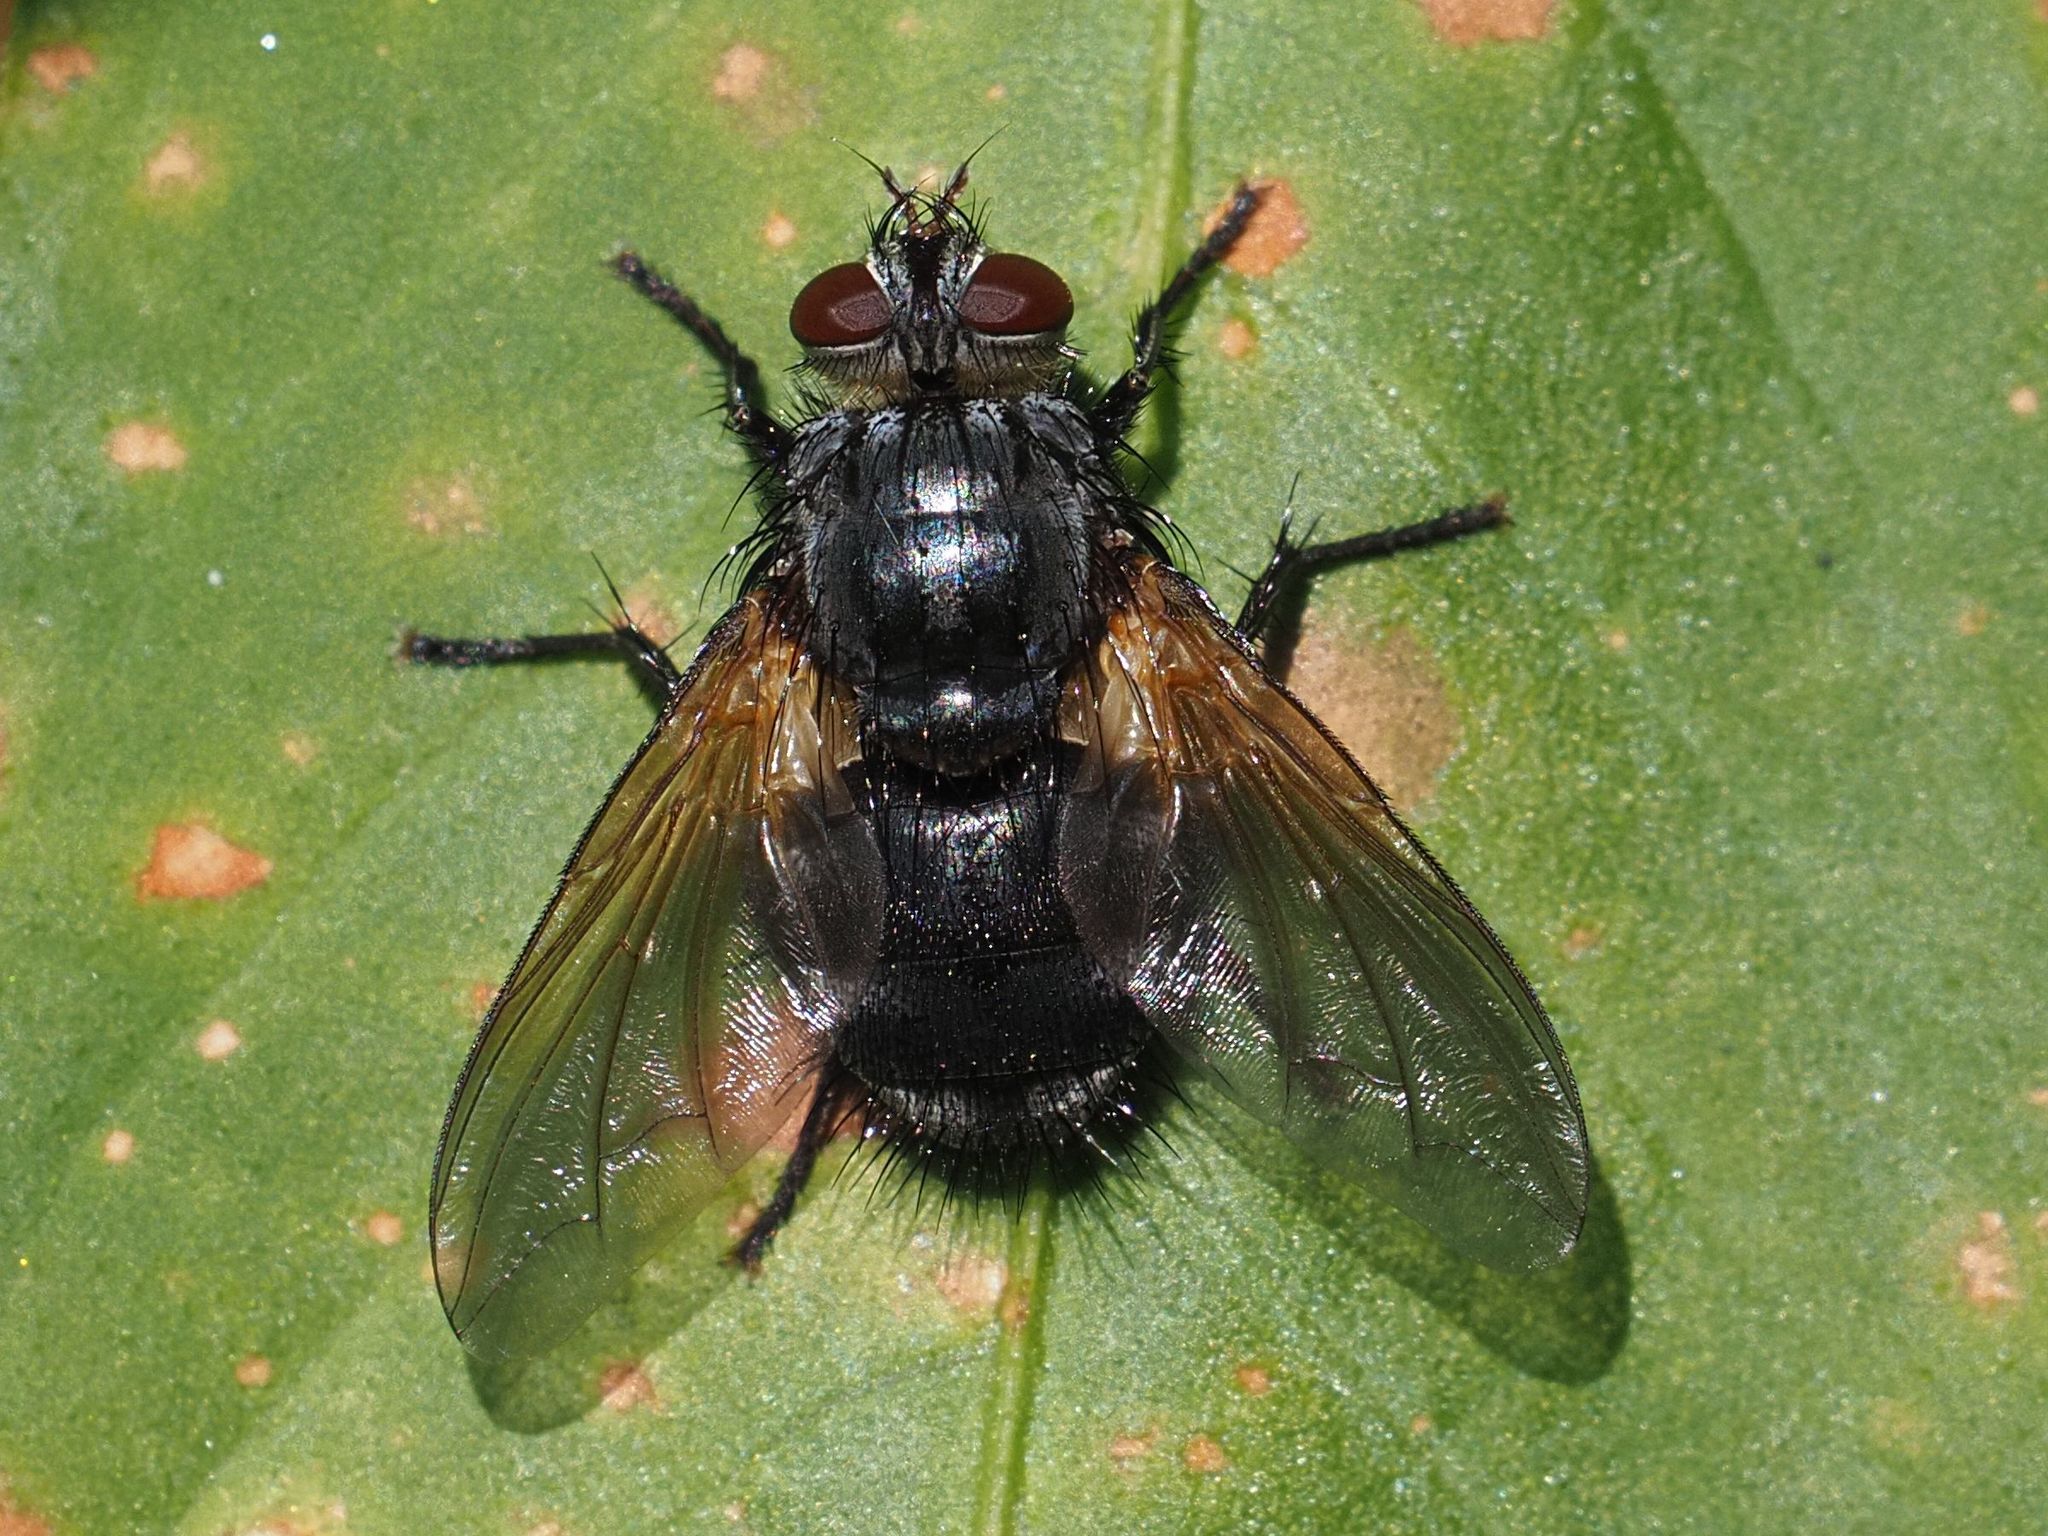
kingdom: Animalia
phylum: Arthropoda
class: Insecta
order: Diptera
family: Tachinidae
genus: Nemoraea
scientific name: Nemoraea pellucida
